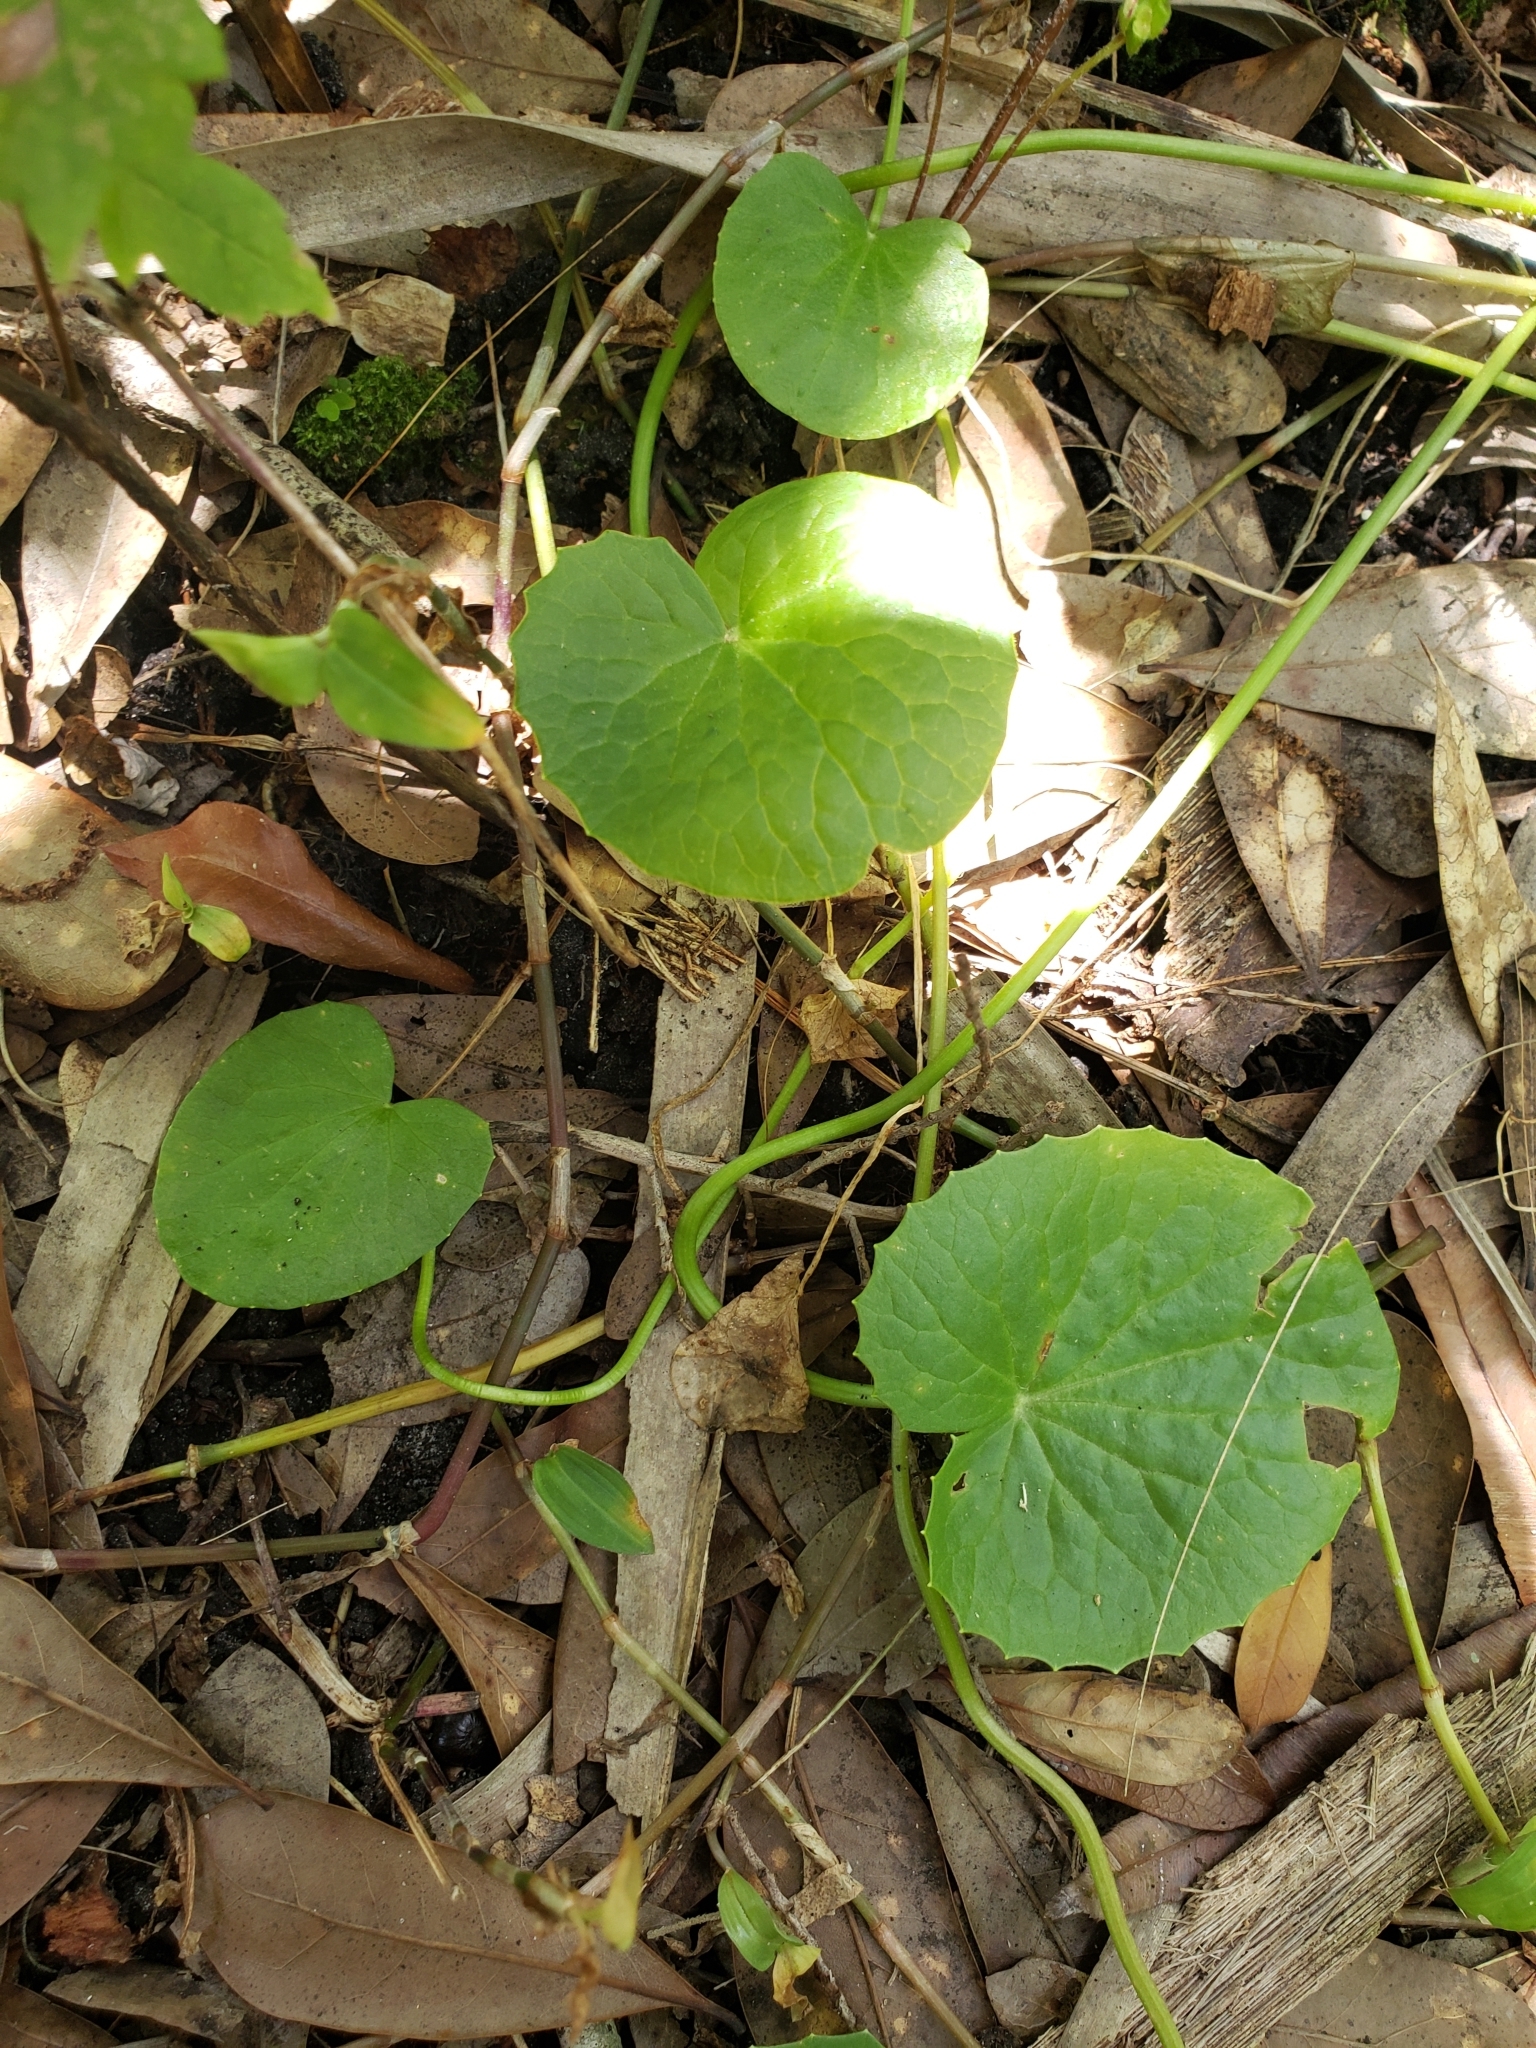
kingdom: Plantae
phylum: Tracheophyta
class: Magnoliopsida
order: Apiales
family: Apiaceae
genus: Centella
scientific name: Centella asiatica
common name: Spadeleaf
